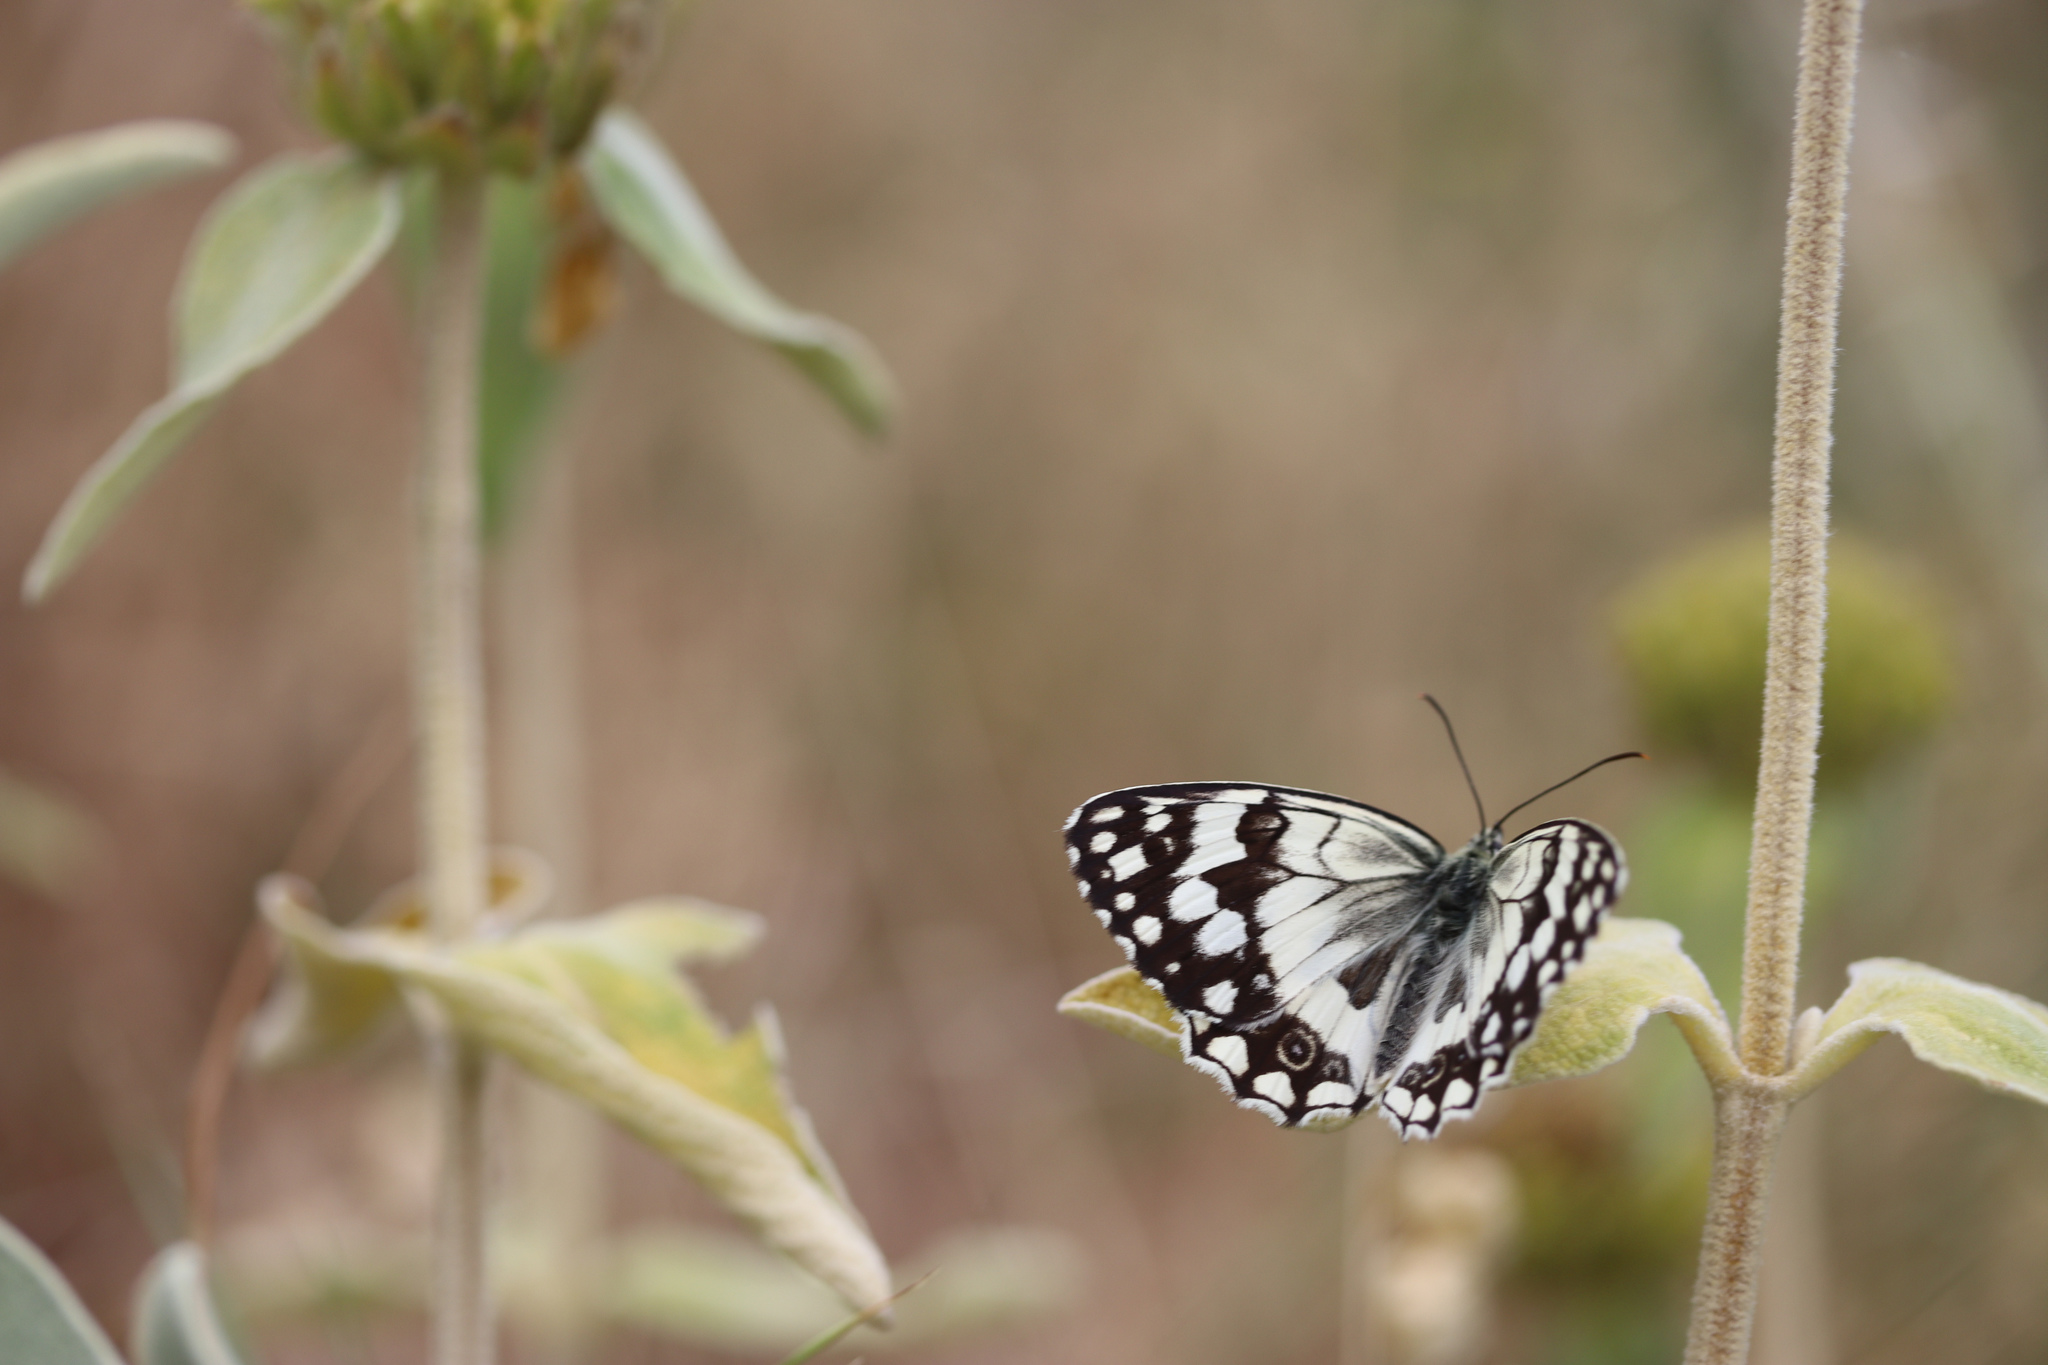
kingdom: Animalia
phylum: Arthropoda
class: Insecta
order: Lepidoptera
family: Nymphalidae
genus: Melanargia
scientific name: Melanargia larissa
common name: Balkan marbled white
